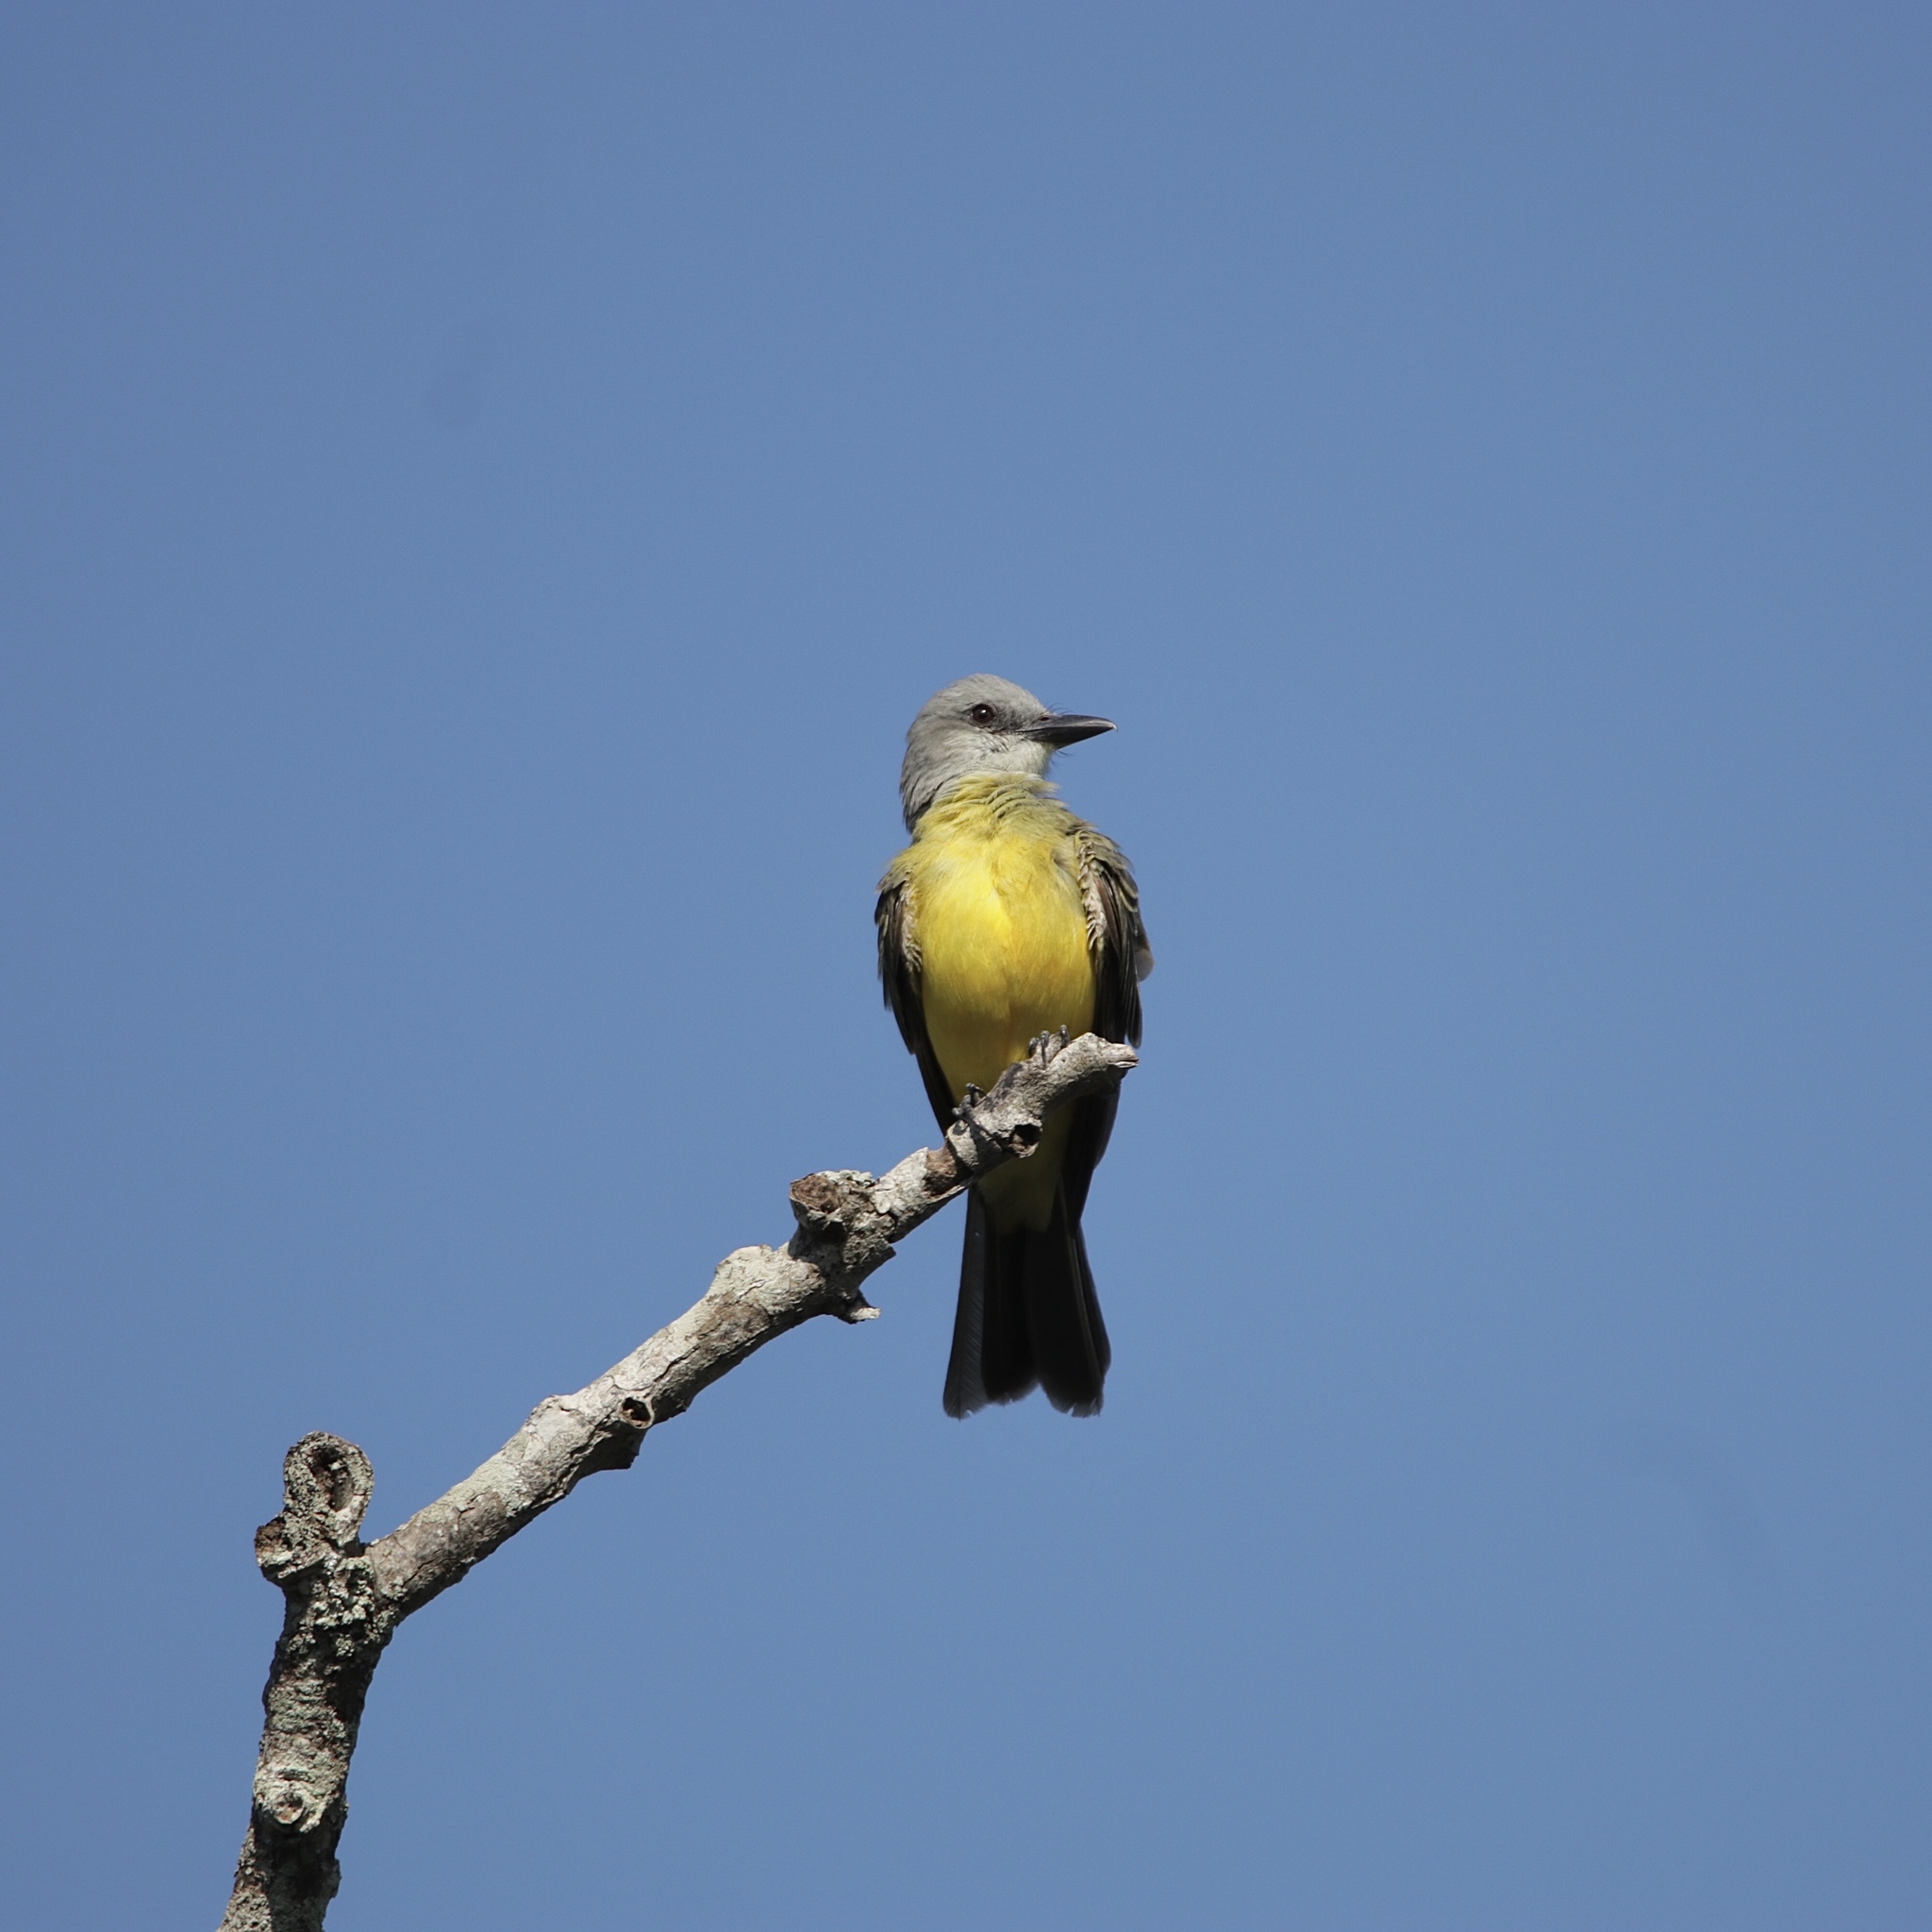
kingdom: Animalia
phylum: Chordata
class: Aves
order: Passeriformes
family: Tyrannidae
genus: Tyrannus
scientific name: Tyrannus melancholicus
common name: Tropical kingbird
